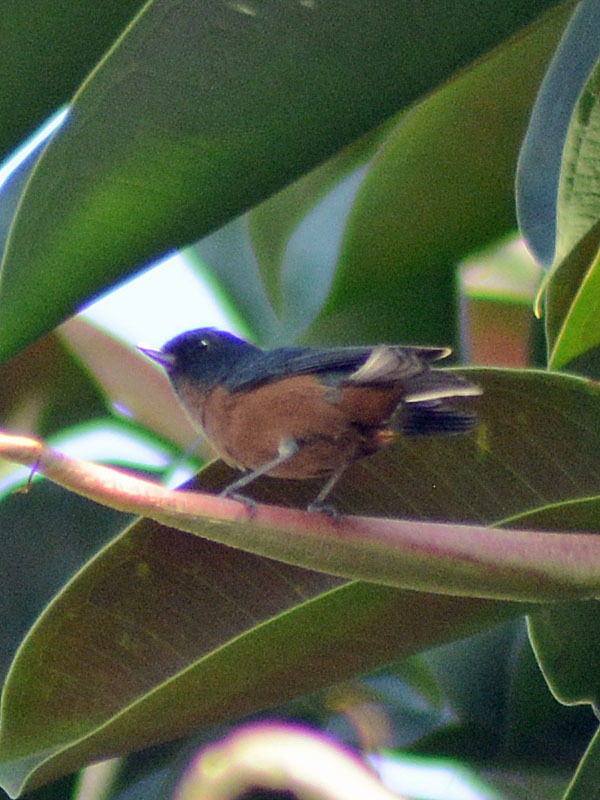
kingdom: Animalia
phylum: Chordata
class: Aves
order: Passeriformes
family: Thraupidae
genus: Diglossa
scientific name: Diglossa baritula
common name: Cinnamon-bellied flowerpiercer
